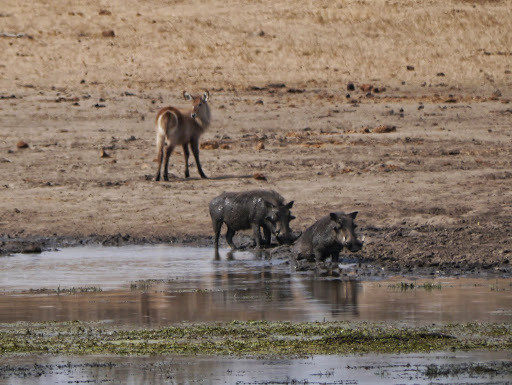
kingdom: Animalia
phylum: Chordata
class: Mammalia
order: Artiodactyla
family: Suidae
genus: Phacochoerus
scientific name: Phacochoerus africanus
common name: Common warthog
